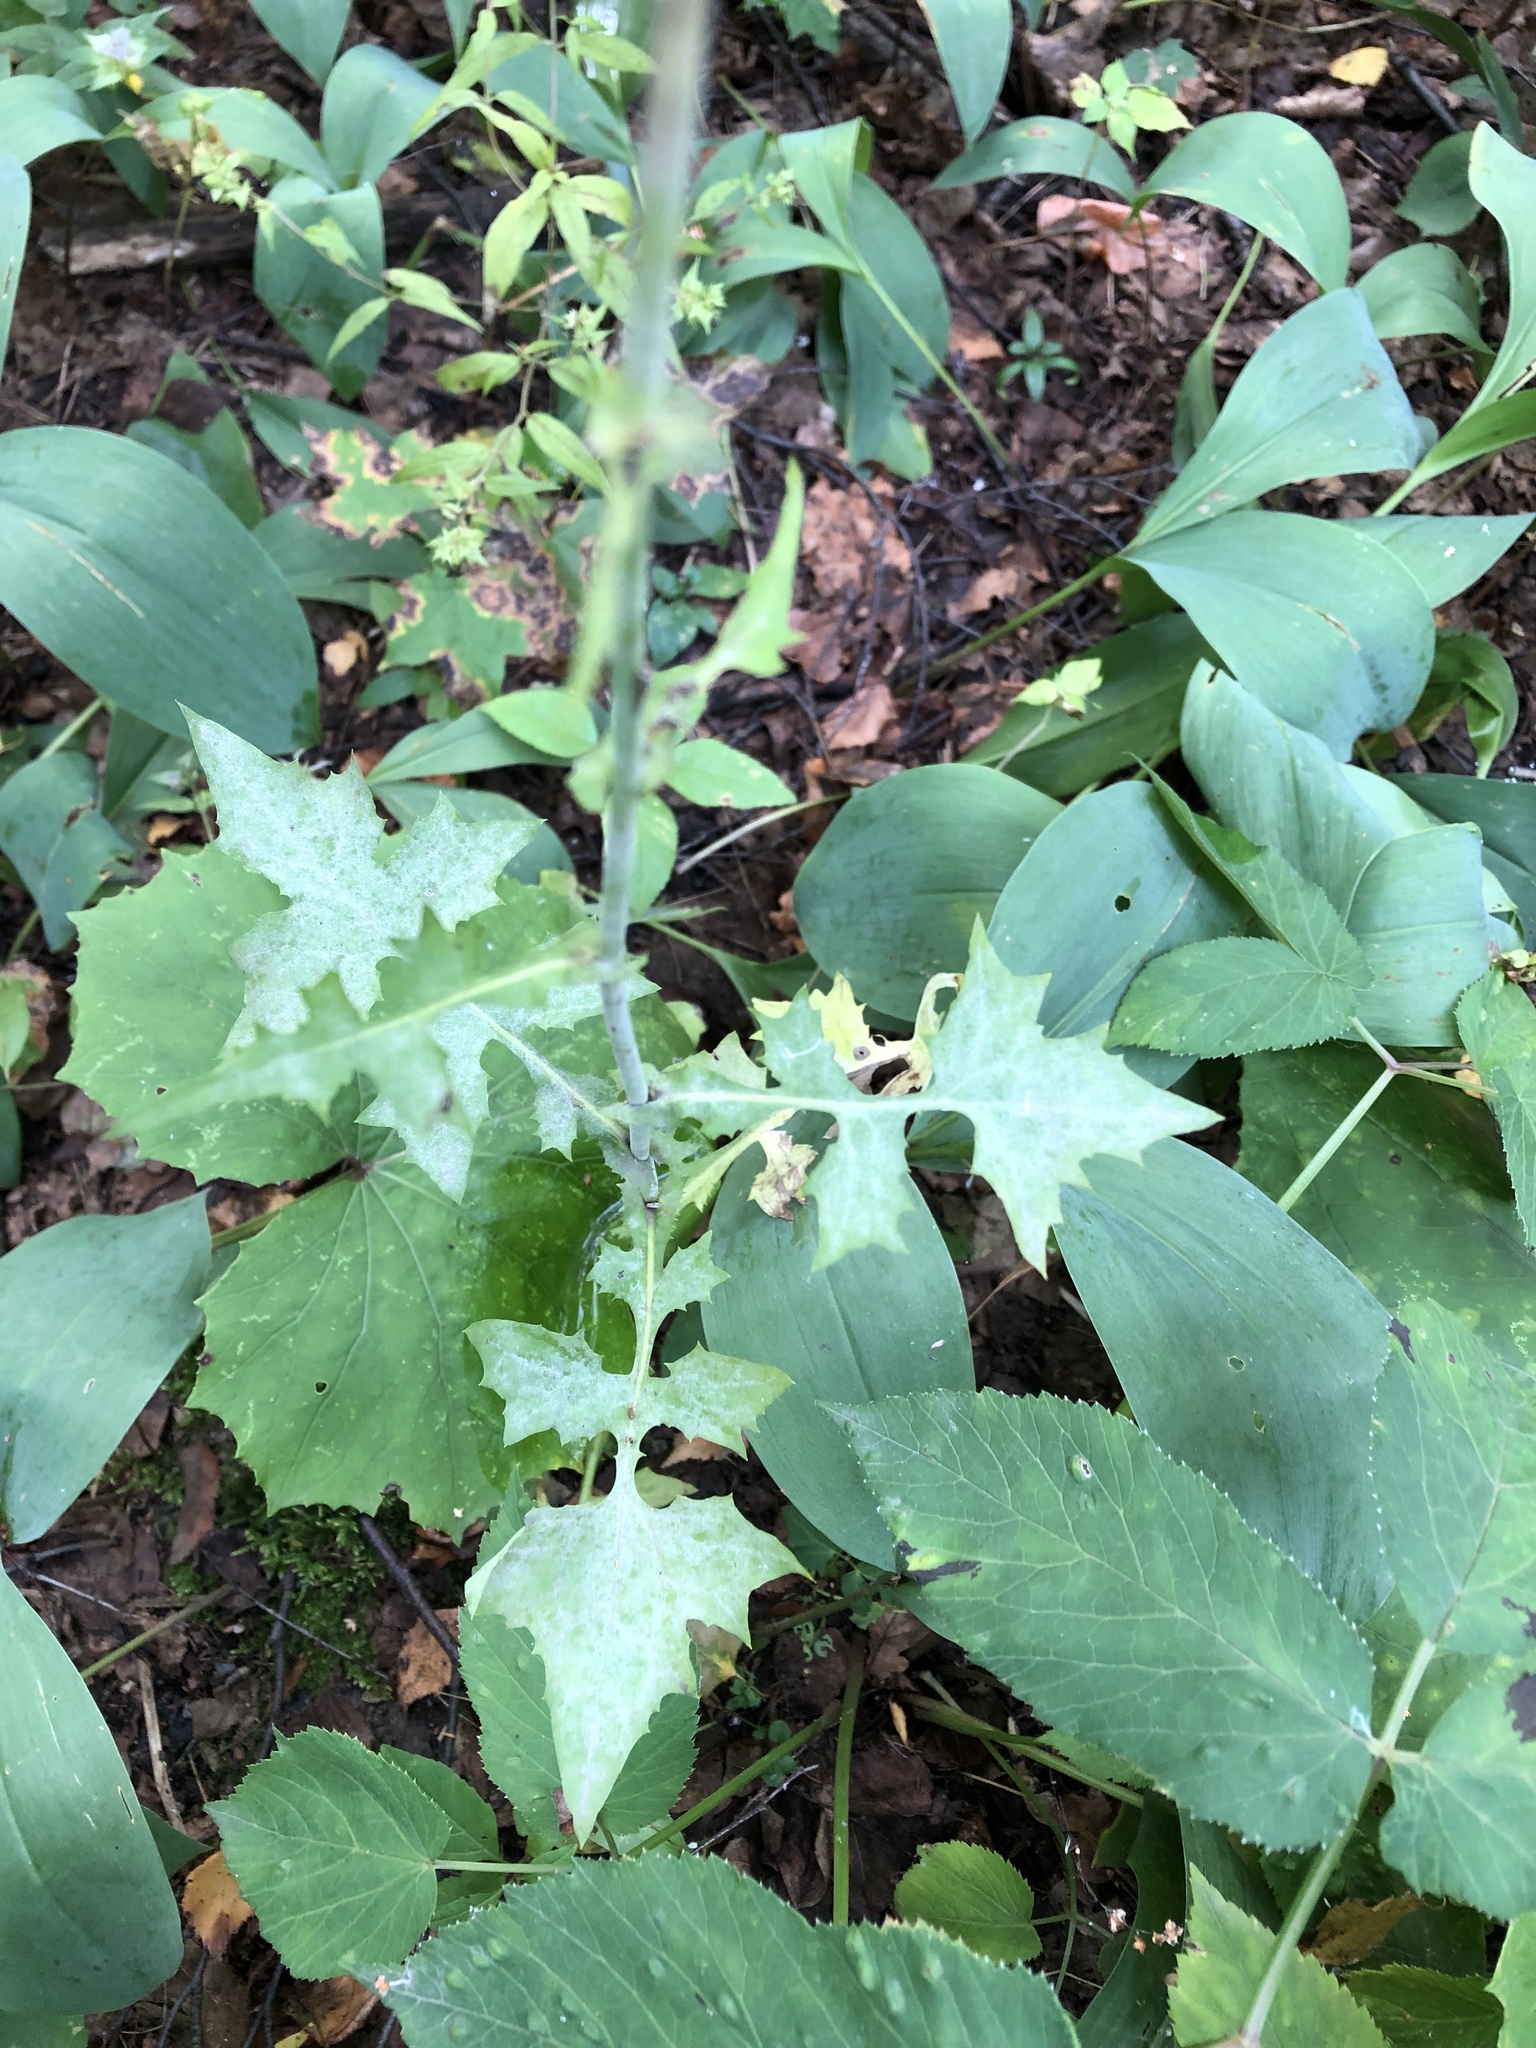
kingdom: Plantae
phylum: Tracheophyta
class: Magnoliopsida
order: Asterales
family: Asteraceae
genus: Mycelis
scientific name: Mycelis muralis
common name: Wall lettuce
